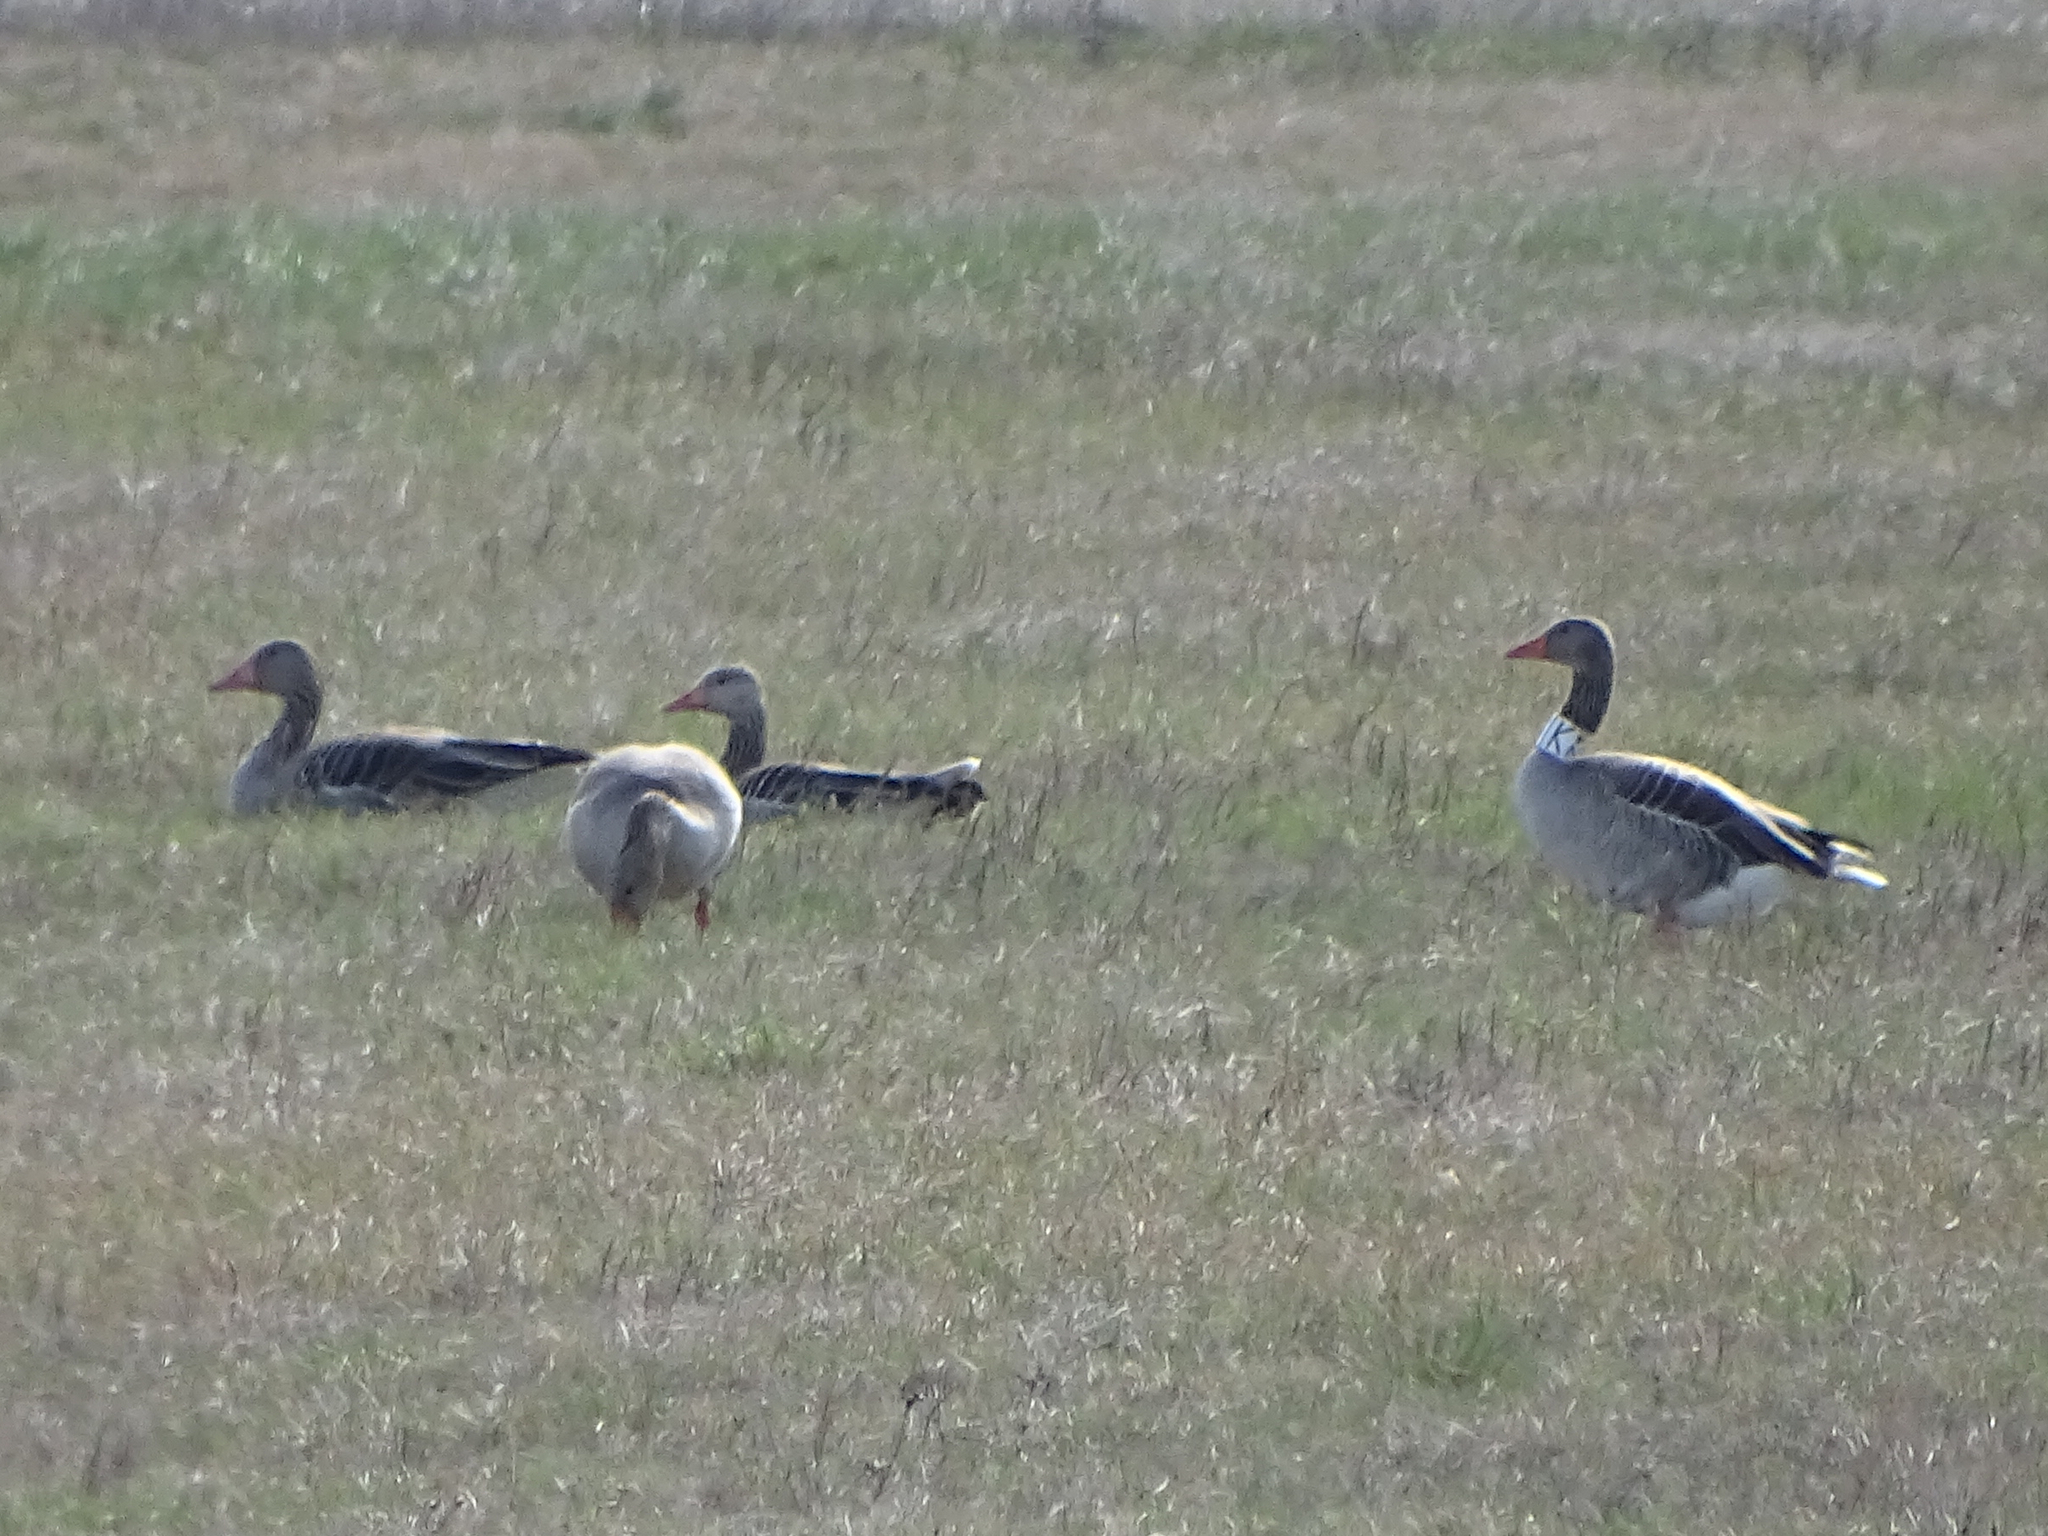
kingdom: Animalia
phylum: Chordata
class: Aves
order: Anseriformes
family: Anatidae
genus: Anser
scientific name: Anser anser
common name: Greylag goose
